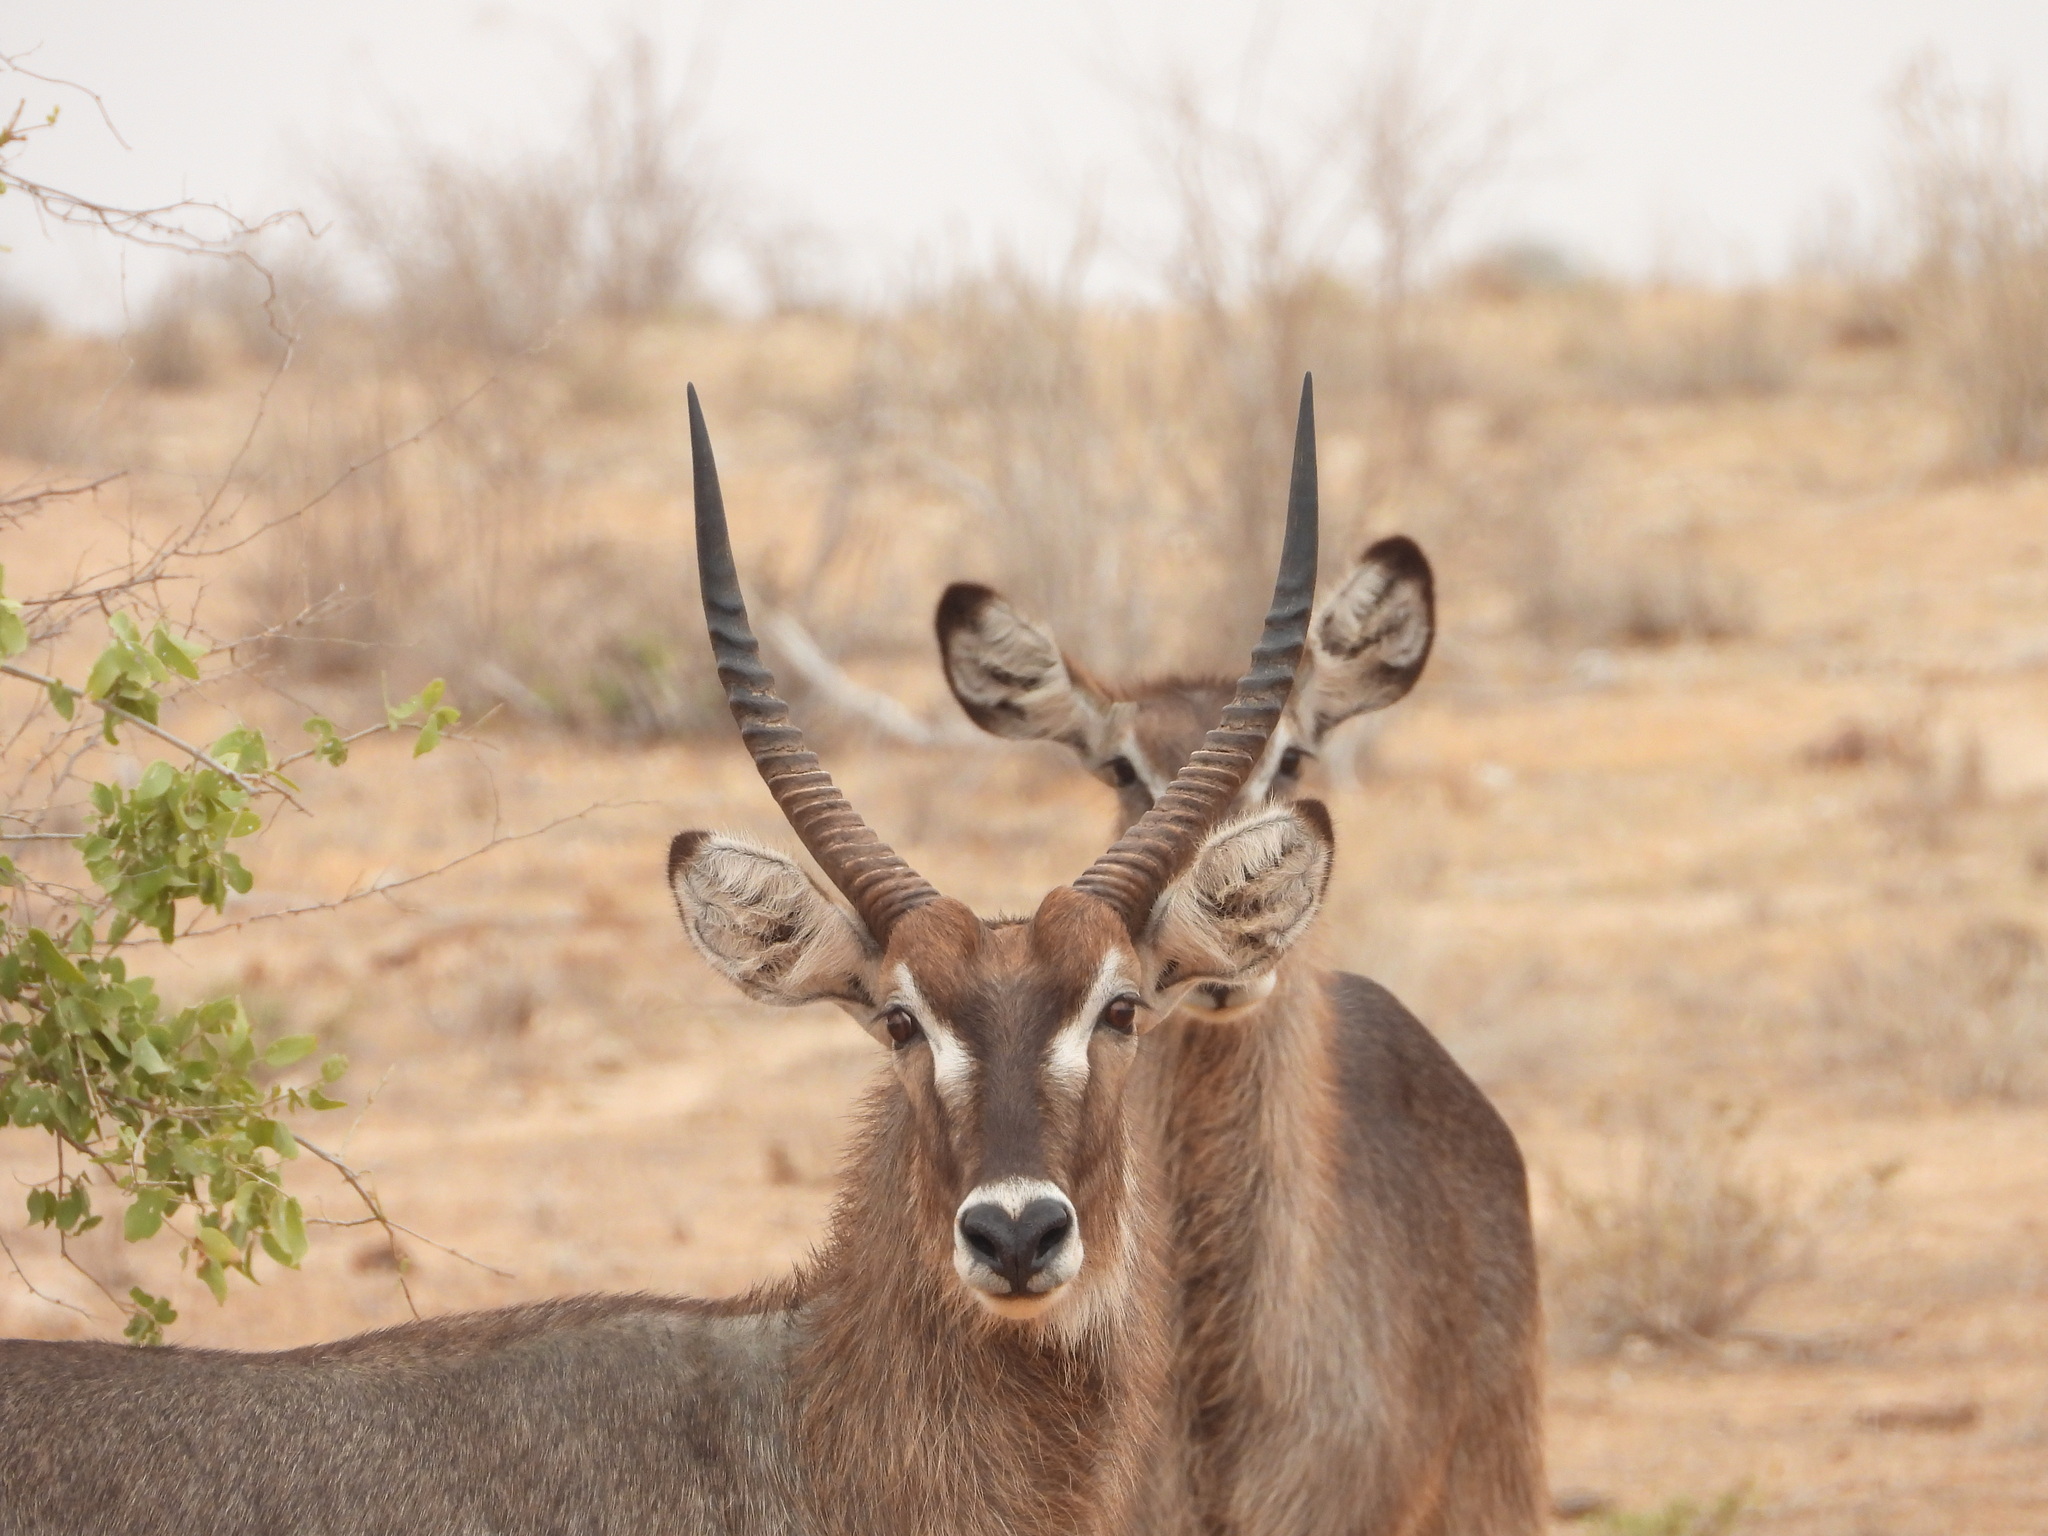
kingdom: Animalia
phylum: Chordata
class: Mammalia
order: Artiodactyla
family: Bovidae
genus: Kobus
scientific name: Kobus ellipsiprymnus
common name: Waterbuck
